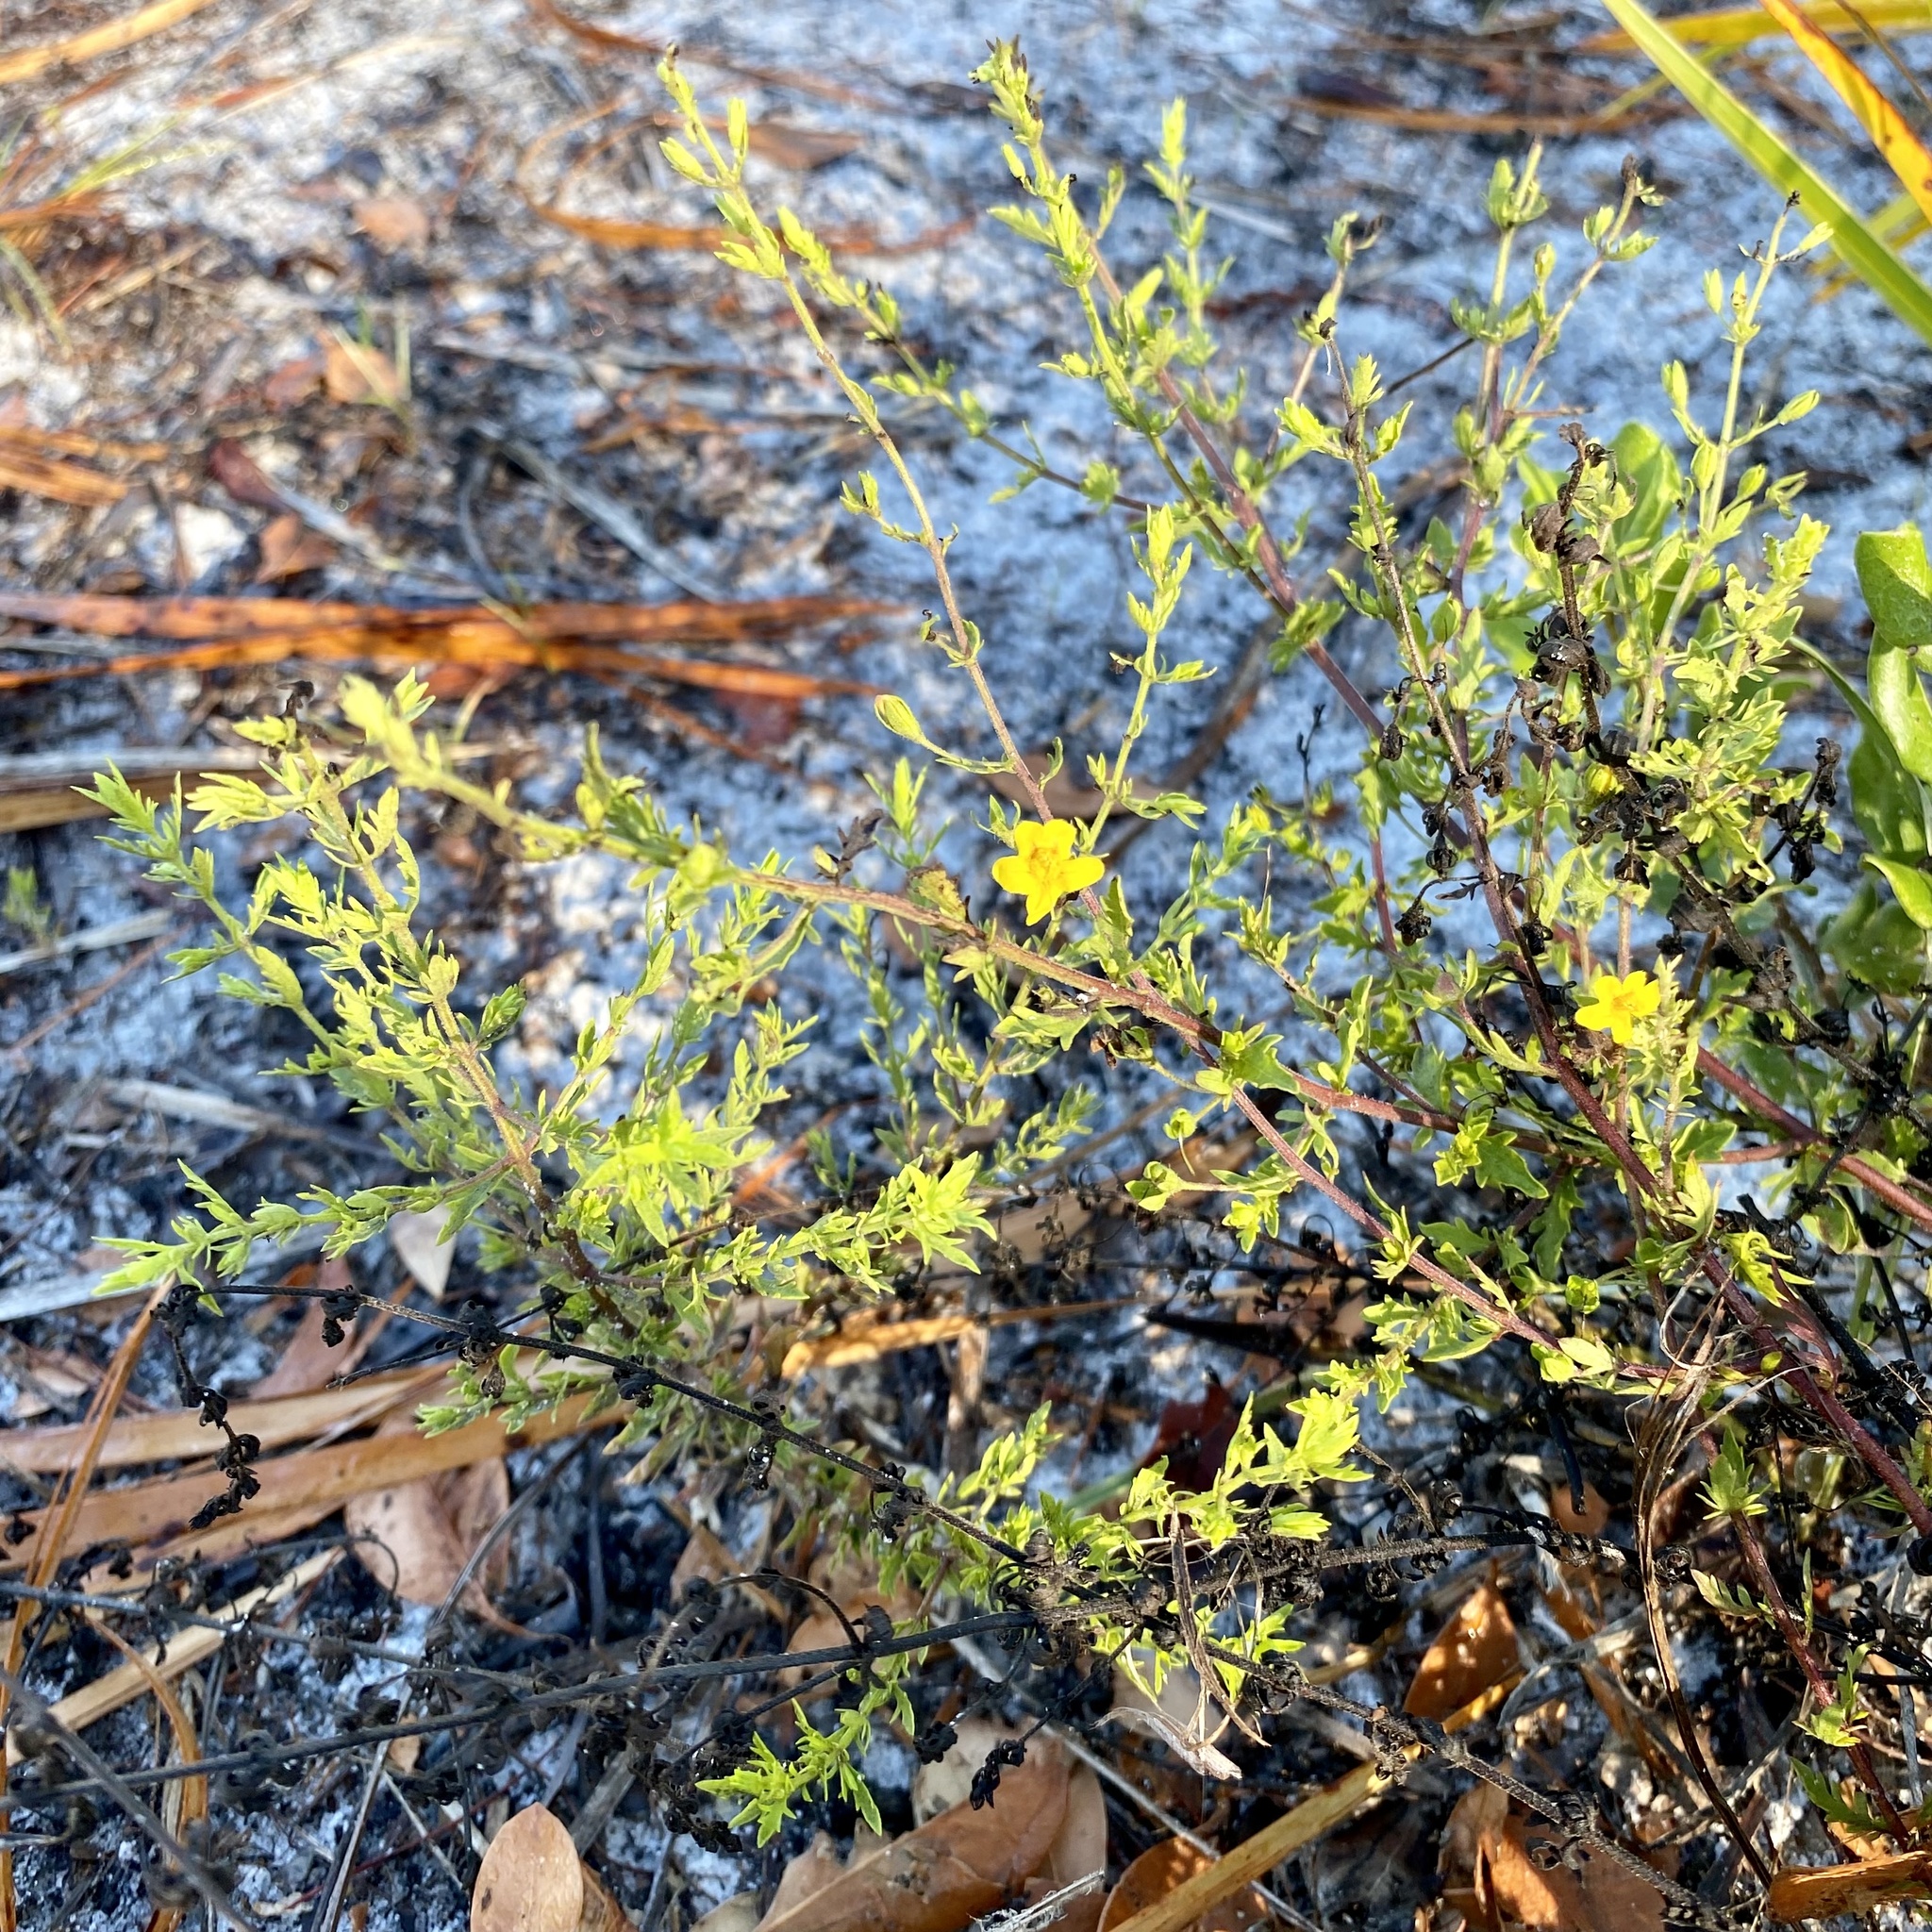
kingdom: Plantae
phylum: Tracheophyta
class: Magnoliopsida
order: Lamiales
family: Orobanchaceae
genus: Seymeria
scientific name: Seymeria pectinata
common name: Piedmont black-senna
